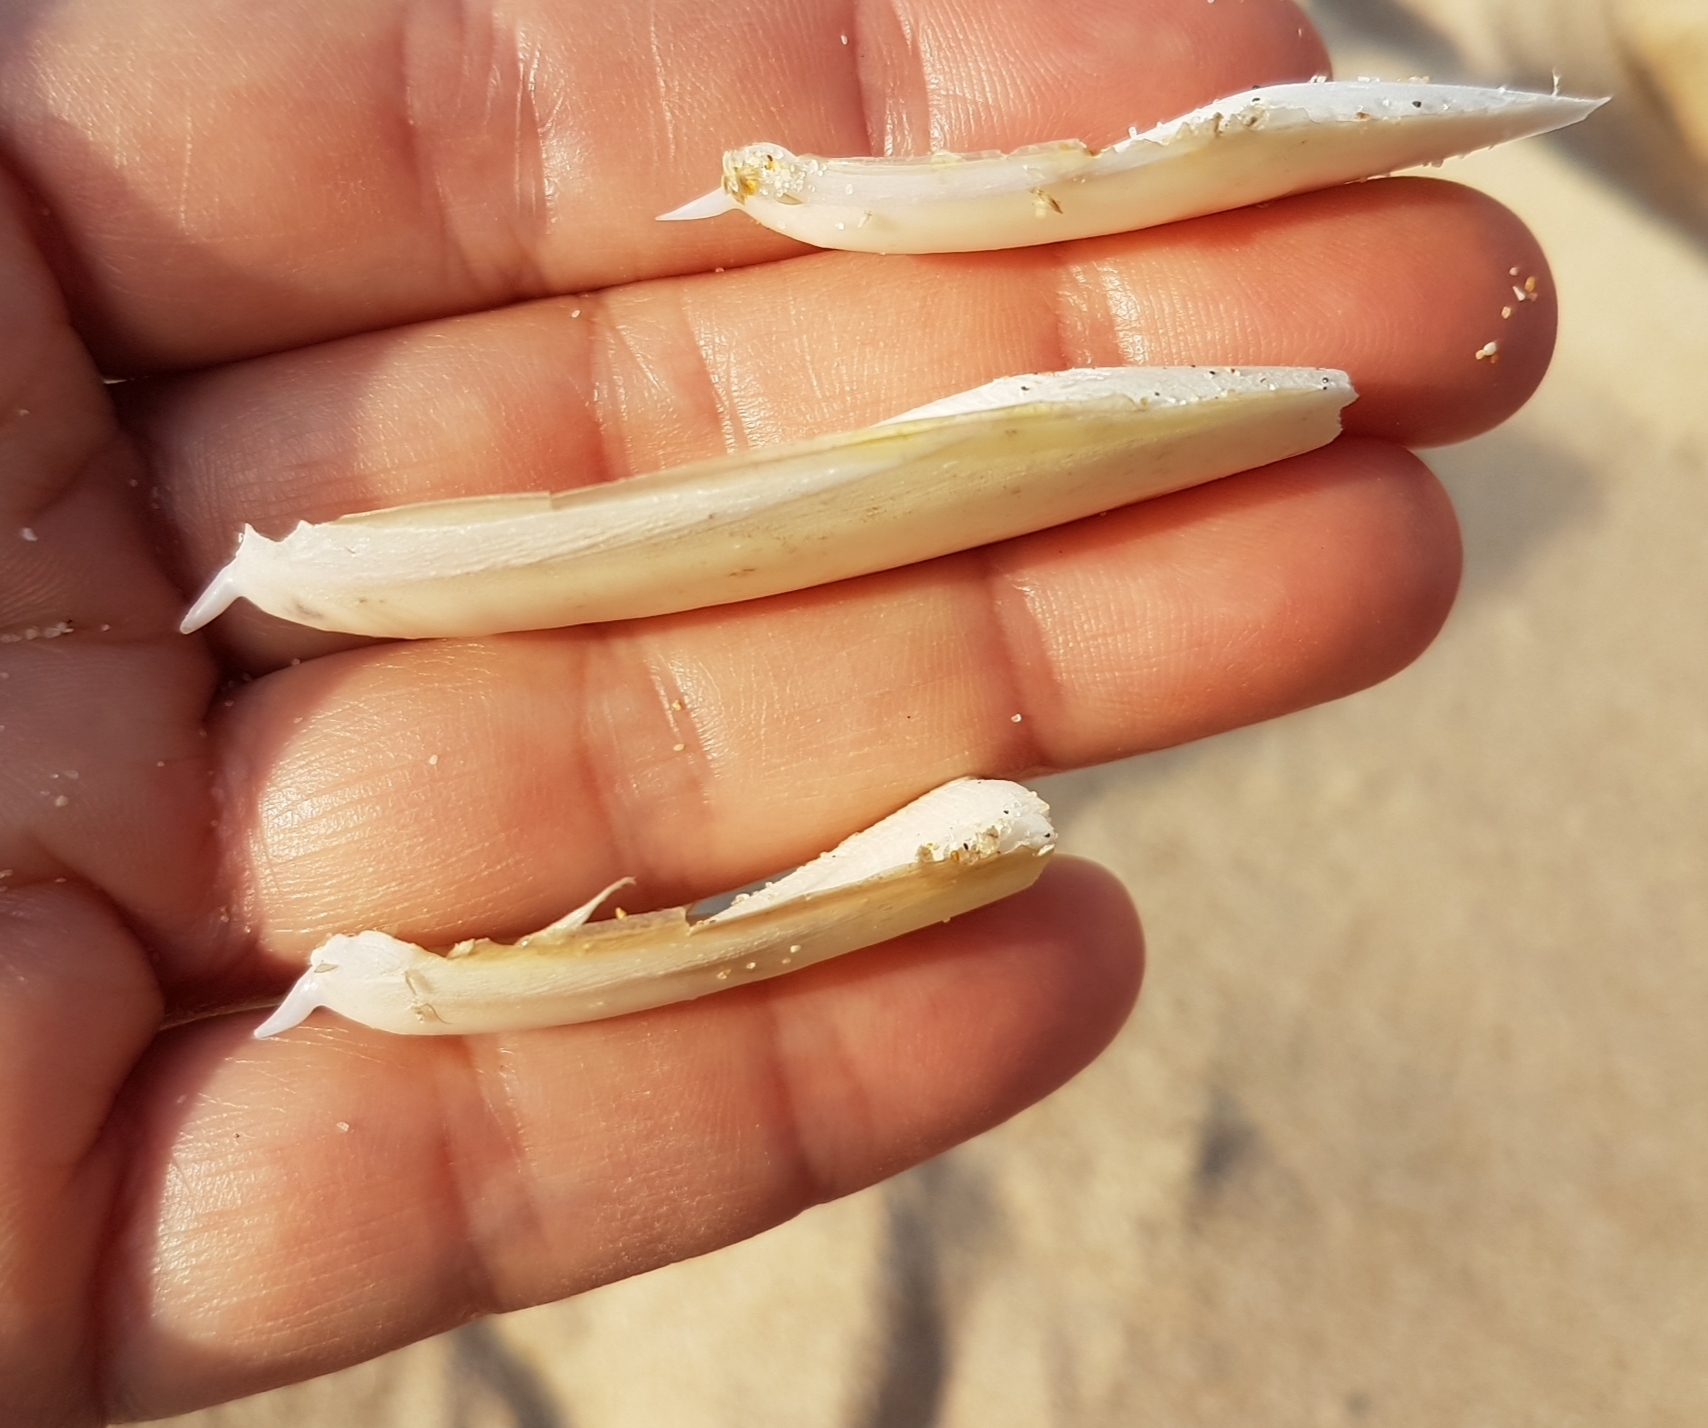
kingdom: Animalia
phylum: Mollusca
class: Cephalopoda
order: Sepiida
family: Sepiidae
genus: Rhombosepion
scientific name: Rhombosepion orbignyanum
